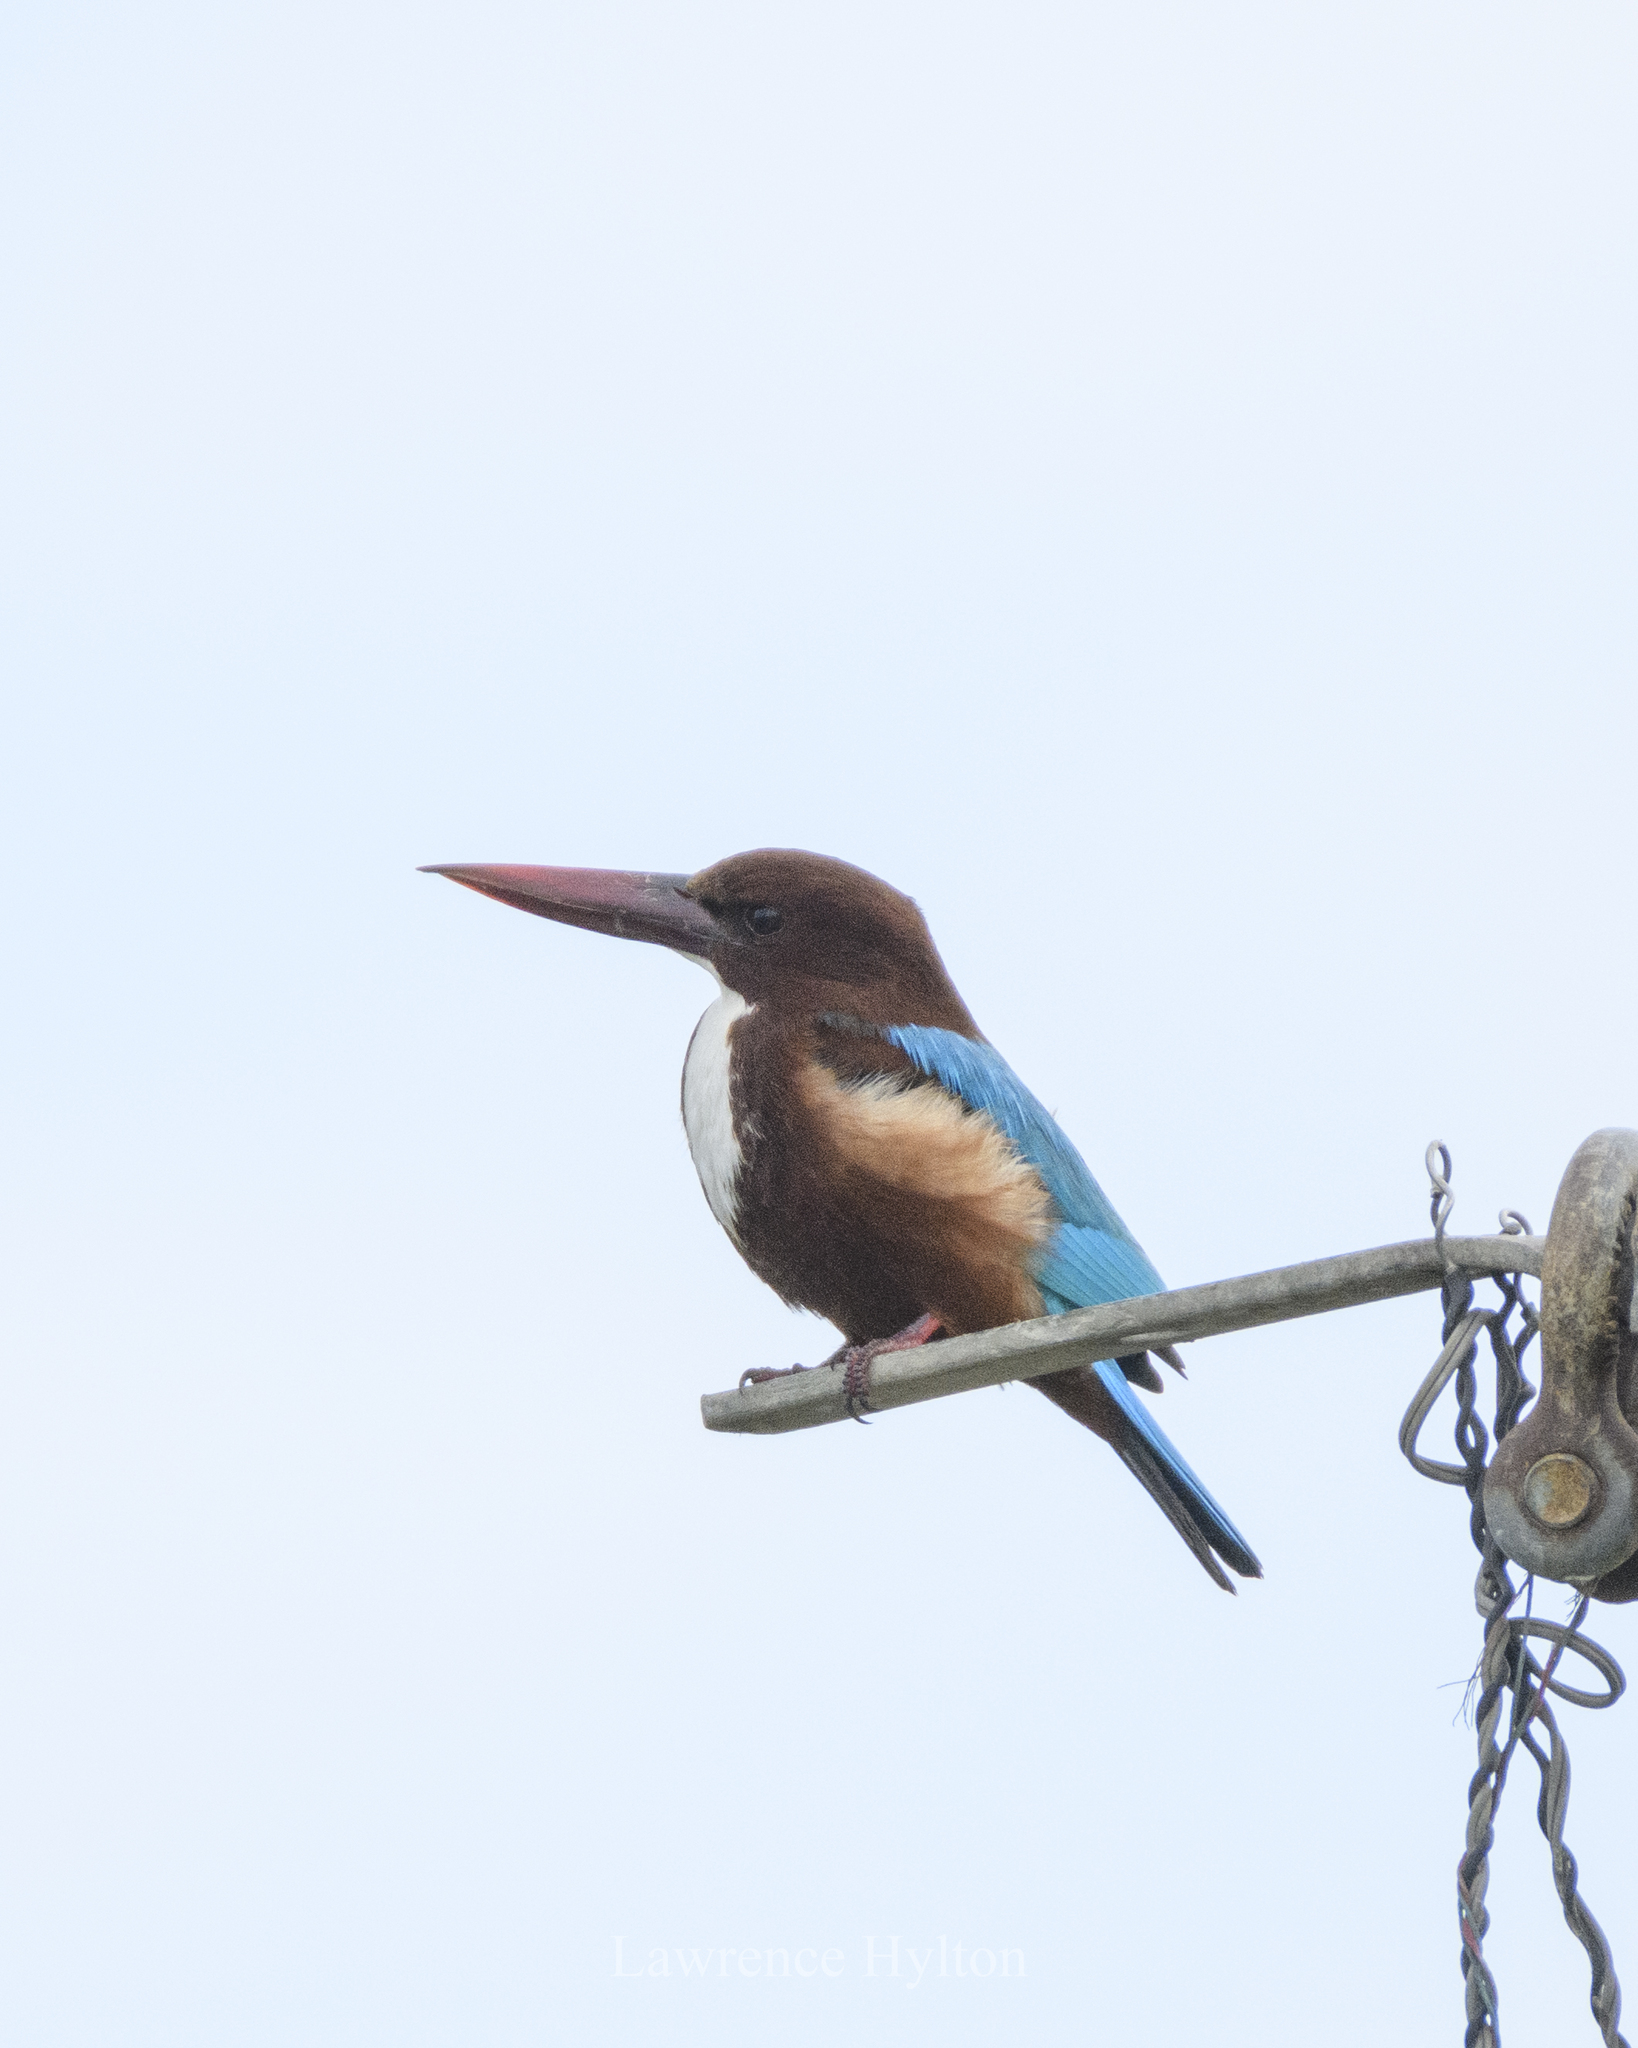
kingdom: Animalia
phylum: Chordata
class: Aves
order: Coraciiformes
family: Alcedinidae
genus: Halcyon
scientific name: Halcyon smyrnensis
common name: White-throated kingfisher
